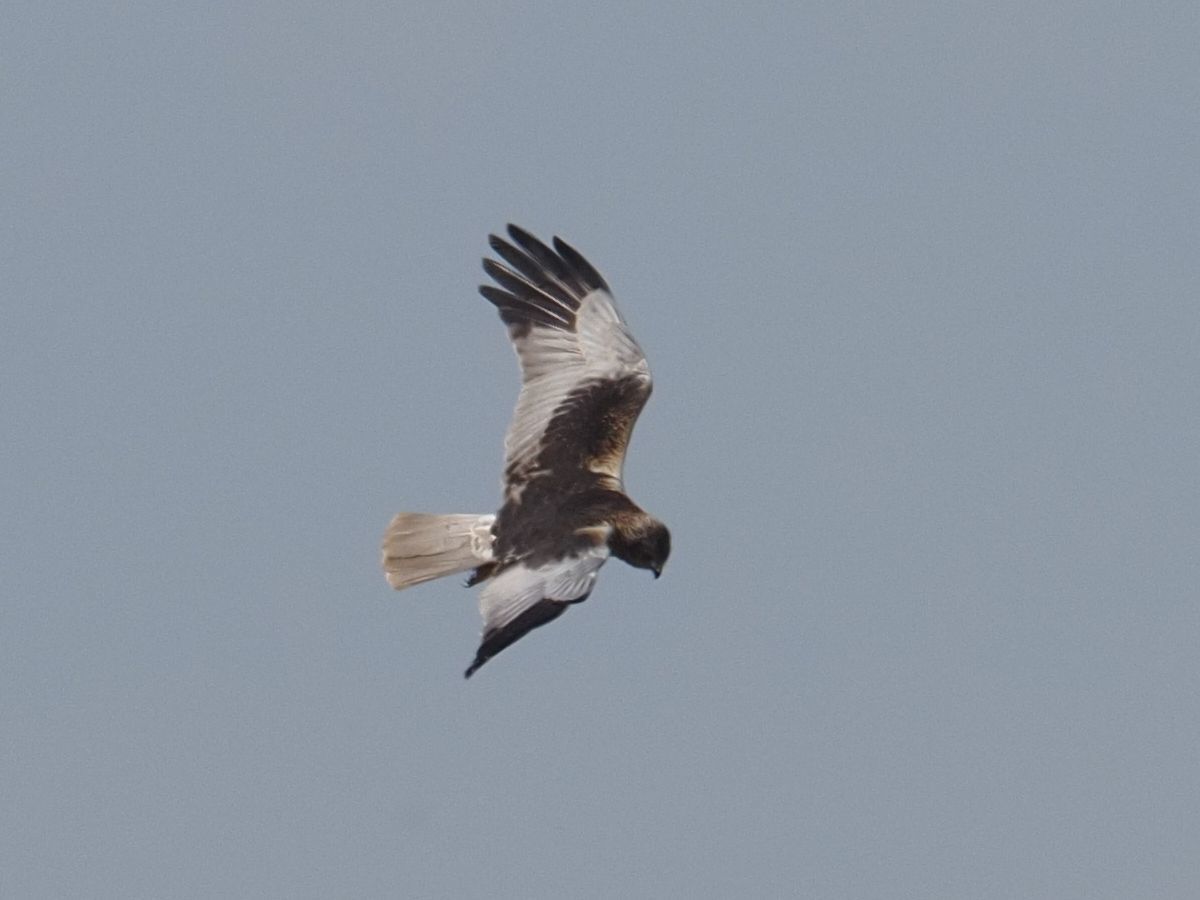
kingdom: Animalia
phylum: Chordata
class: Aves
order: Accipitriformes
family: Accipitridae
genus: Circus
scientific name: Circus aeruginosus
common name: Western marsh harrier
